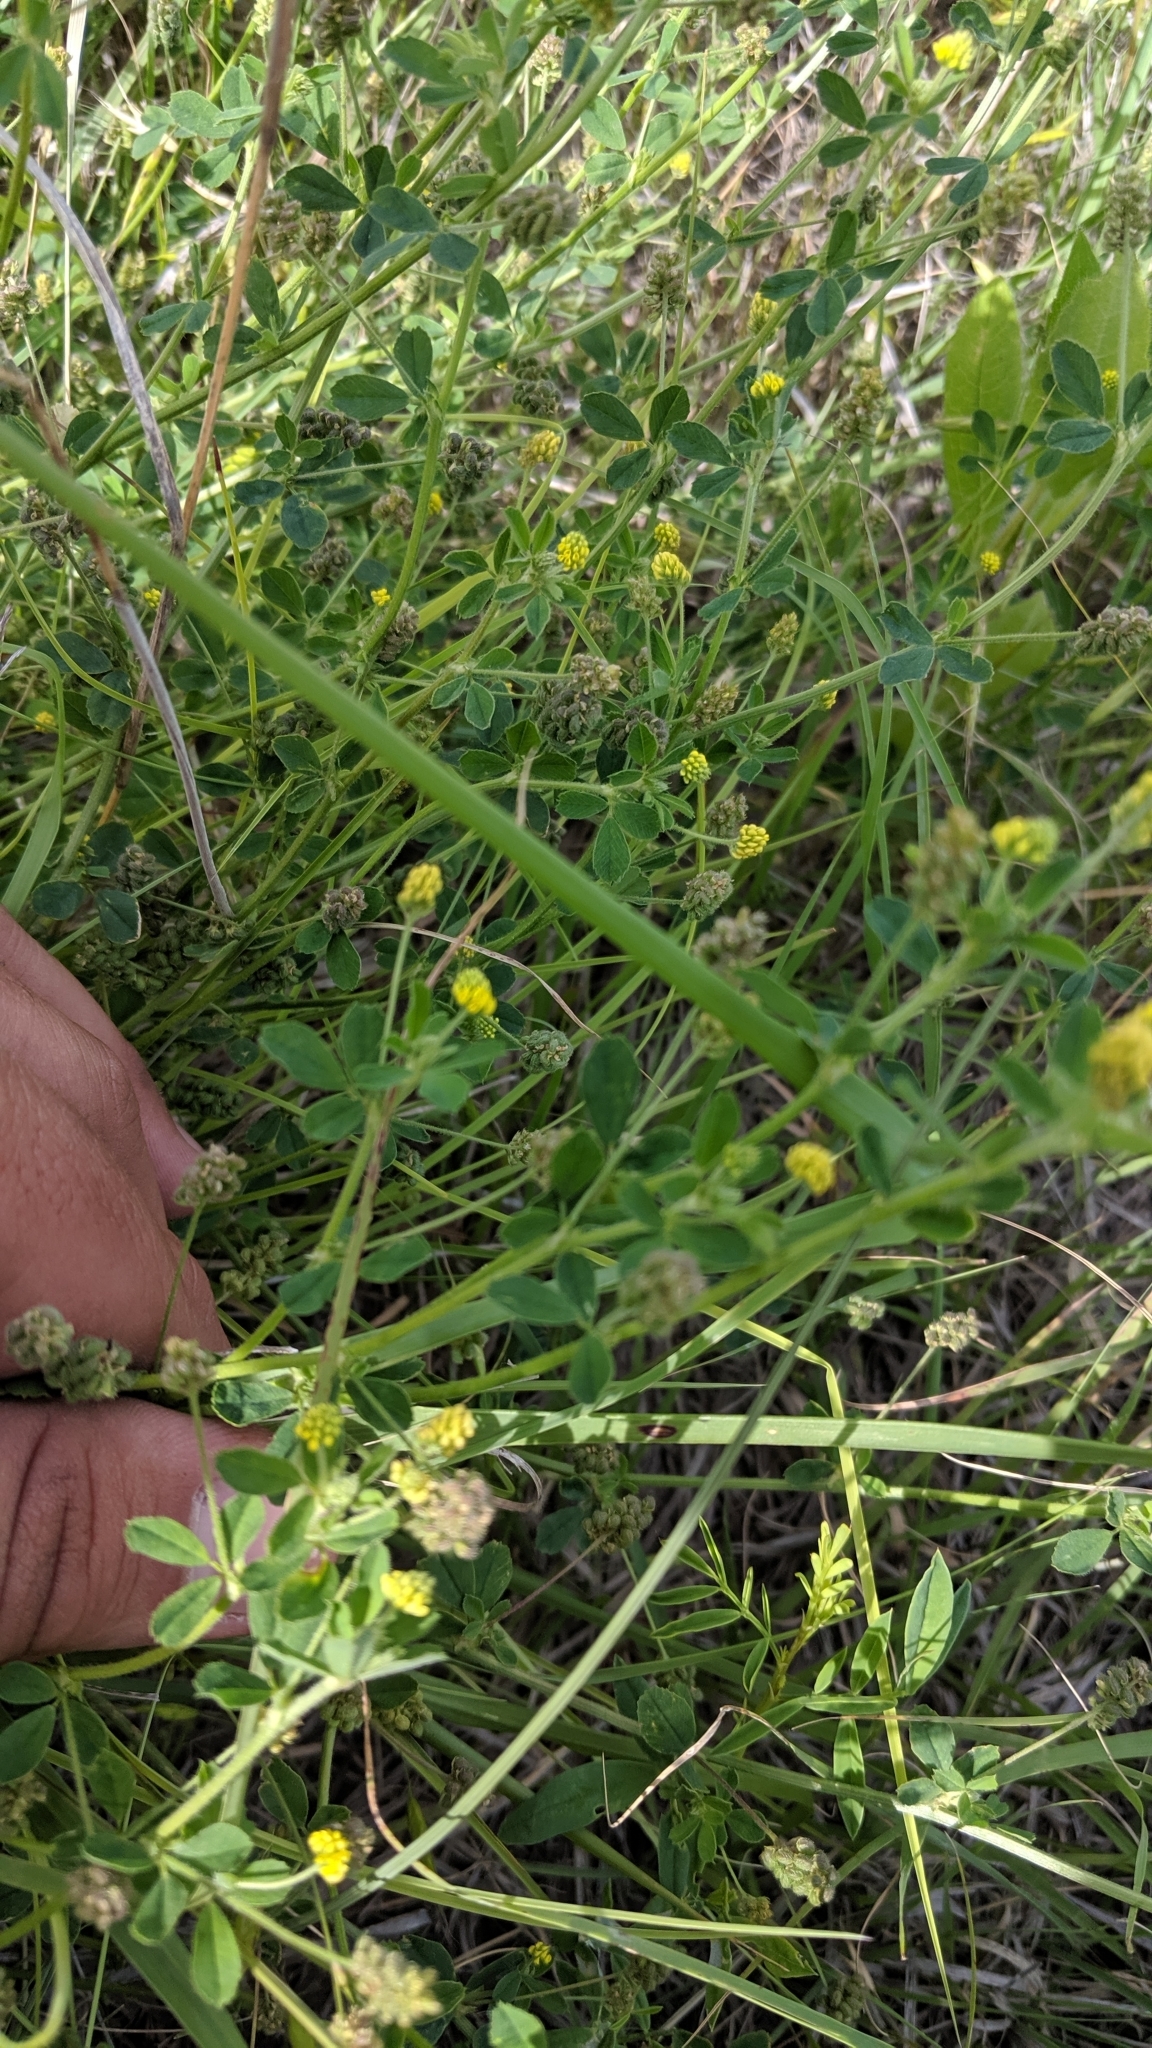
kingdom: Plantae
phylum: Tracheophyta
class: Magnoliopsida
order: Fabales
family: Fabaceae
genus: Medicago
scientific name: Medicago lupulina
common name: Black medick
